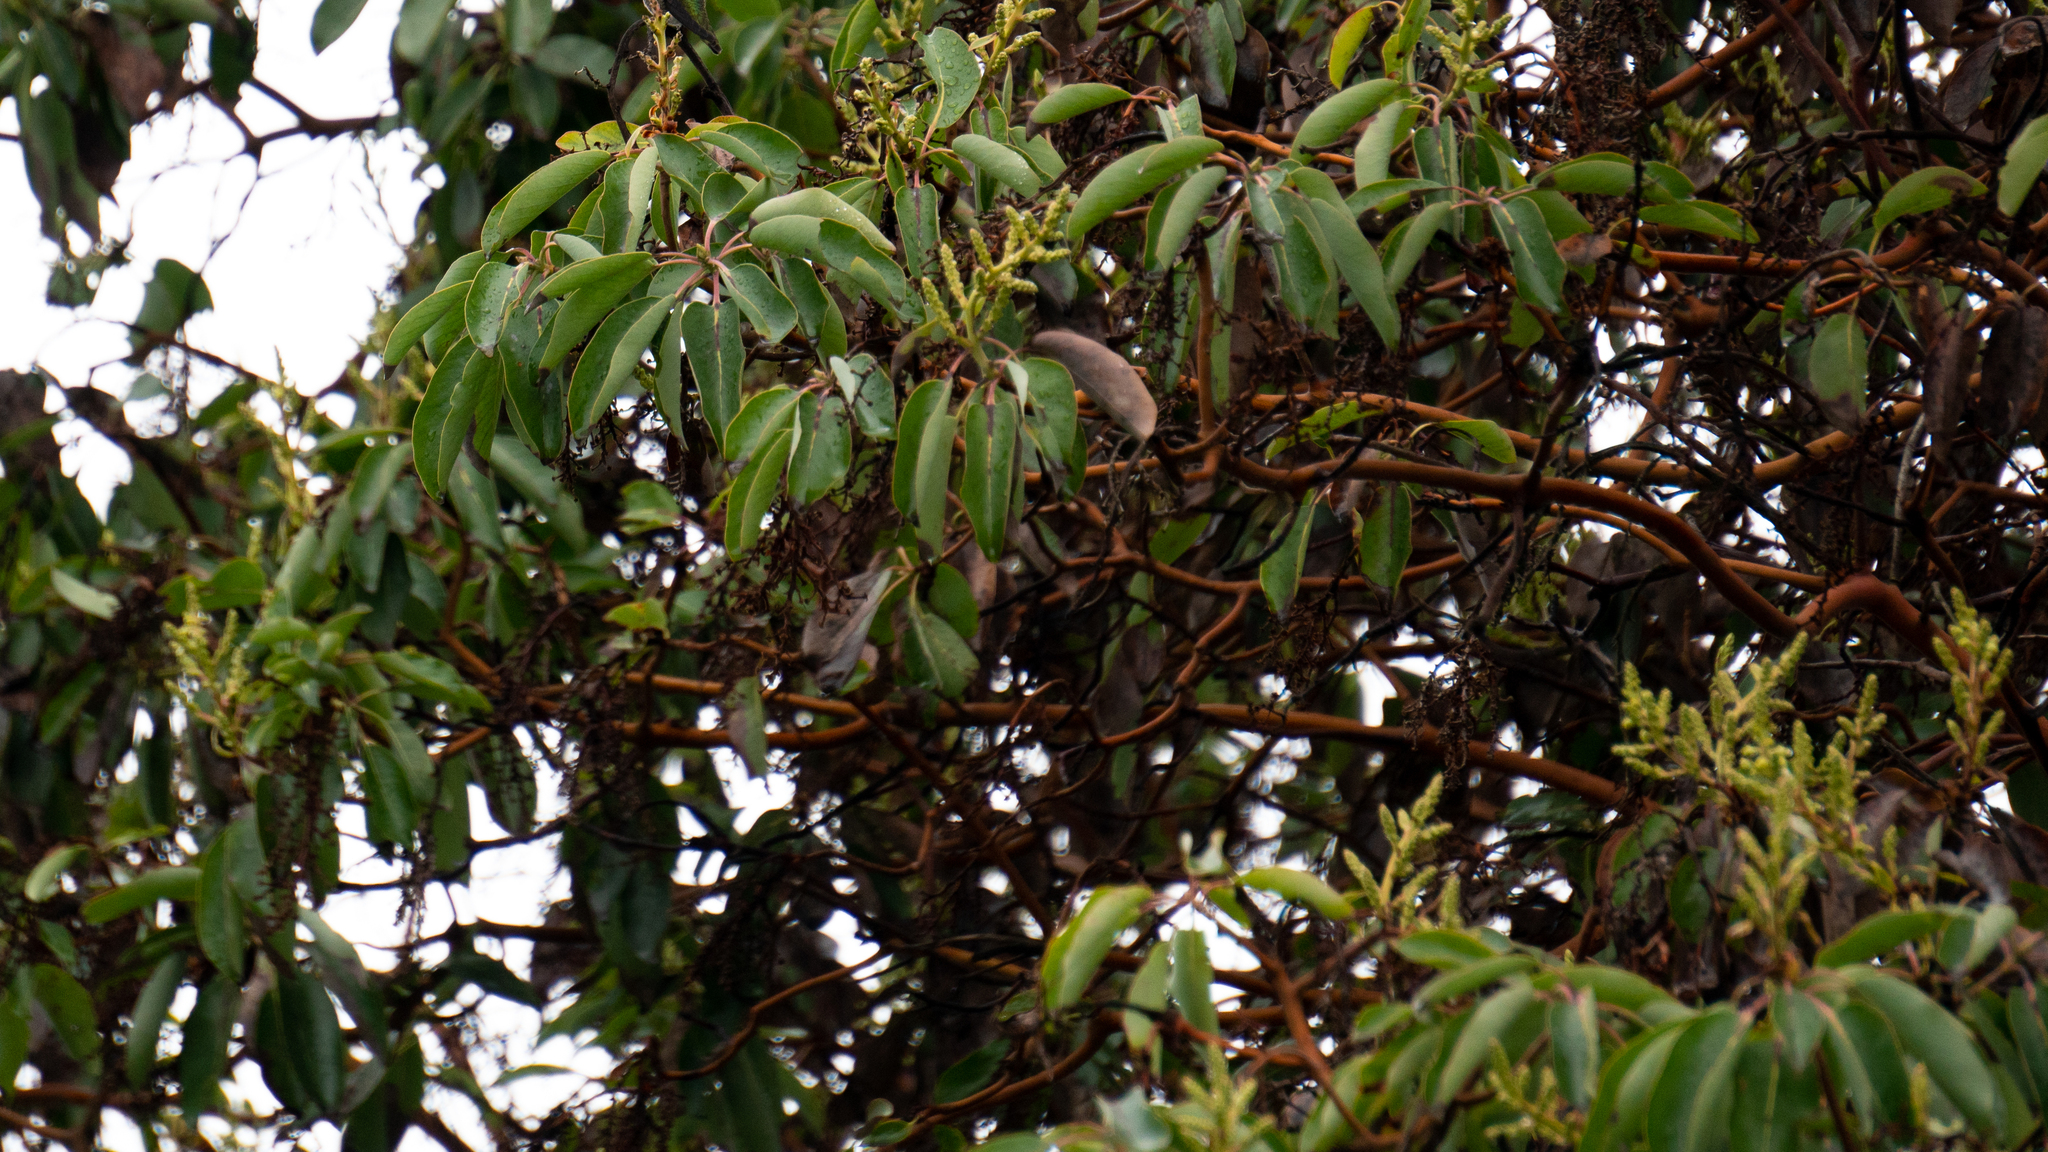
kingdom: Plantae
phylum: Tracheophyta
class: Magnoliopsida
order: Ericales
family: Ericaceae
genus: Arbutus
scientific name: Arbutus menziesii
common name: Pacific madrone
